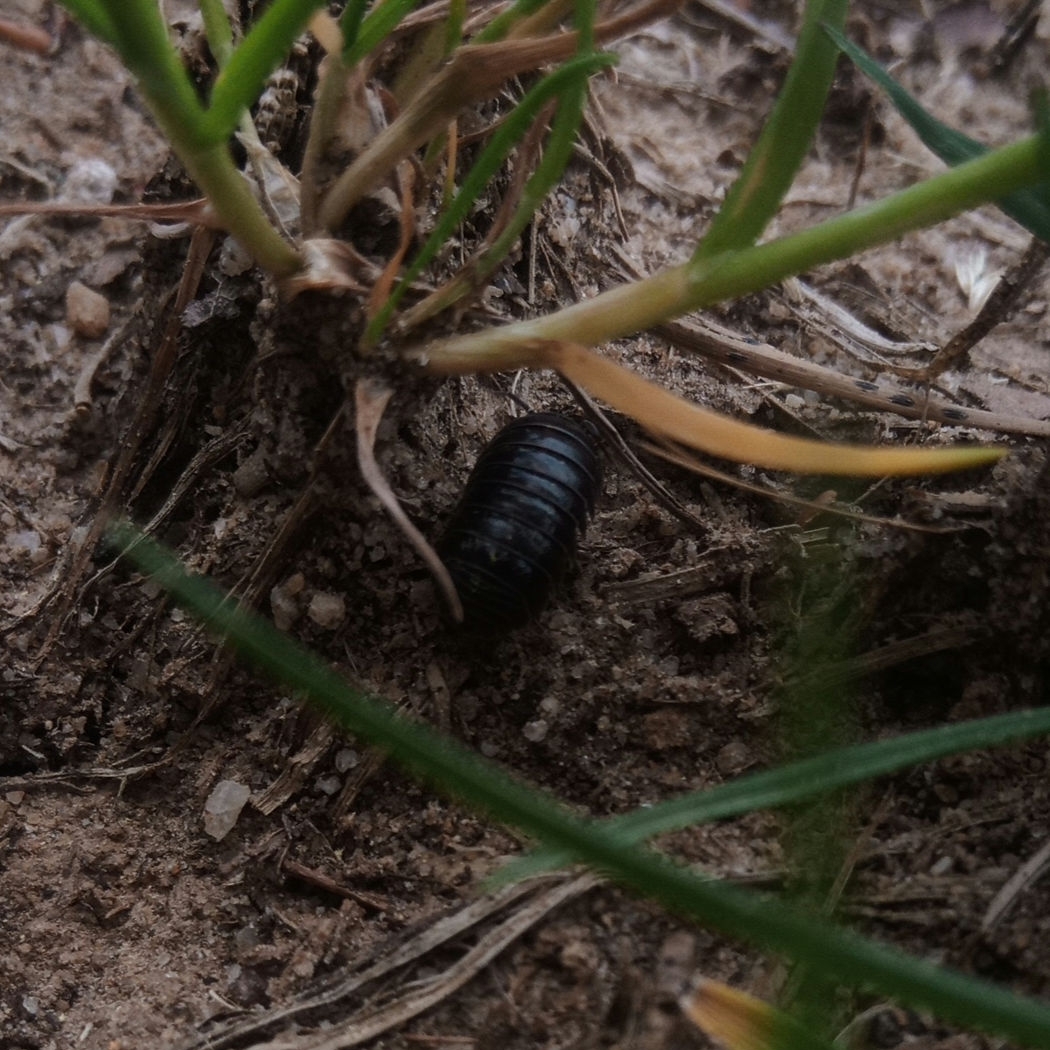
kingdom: Animalia
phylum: Arthropoda
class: Malacostraca
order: Isopoda
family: Armadillidiidae
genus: Armadillidium
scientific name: Armadillidium vulgare
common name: Common pill woodlouse
